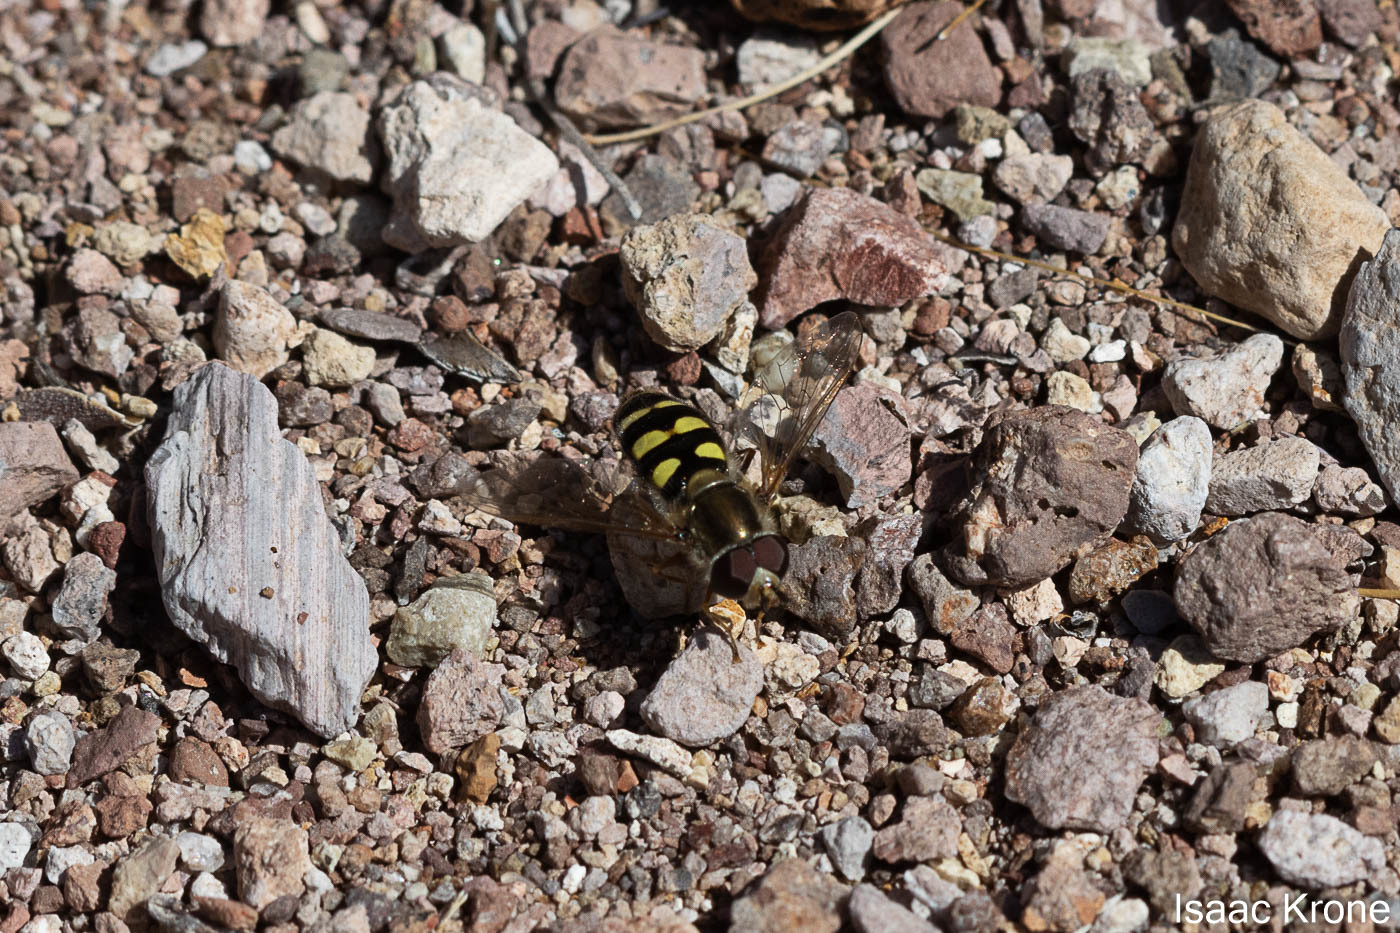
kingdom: Animalia
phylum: Arthropoda
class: Insecta
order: Diptera
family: Syrphidae
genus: Eupeodes
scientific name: Eupeodes fumipennis
